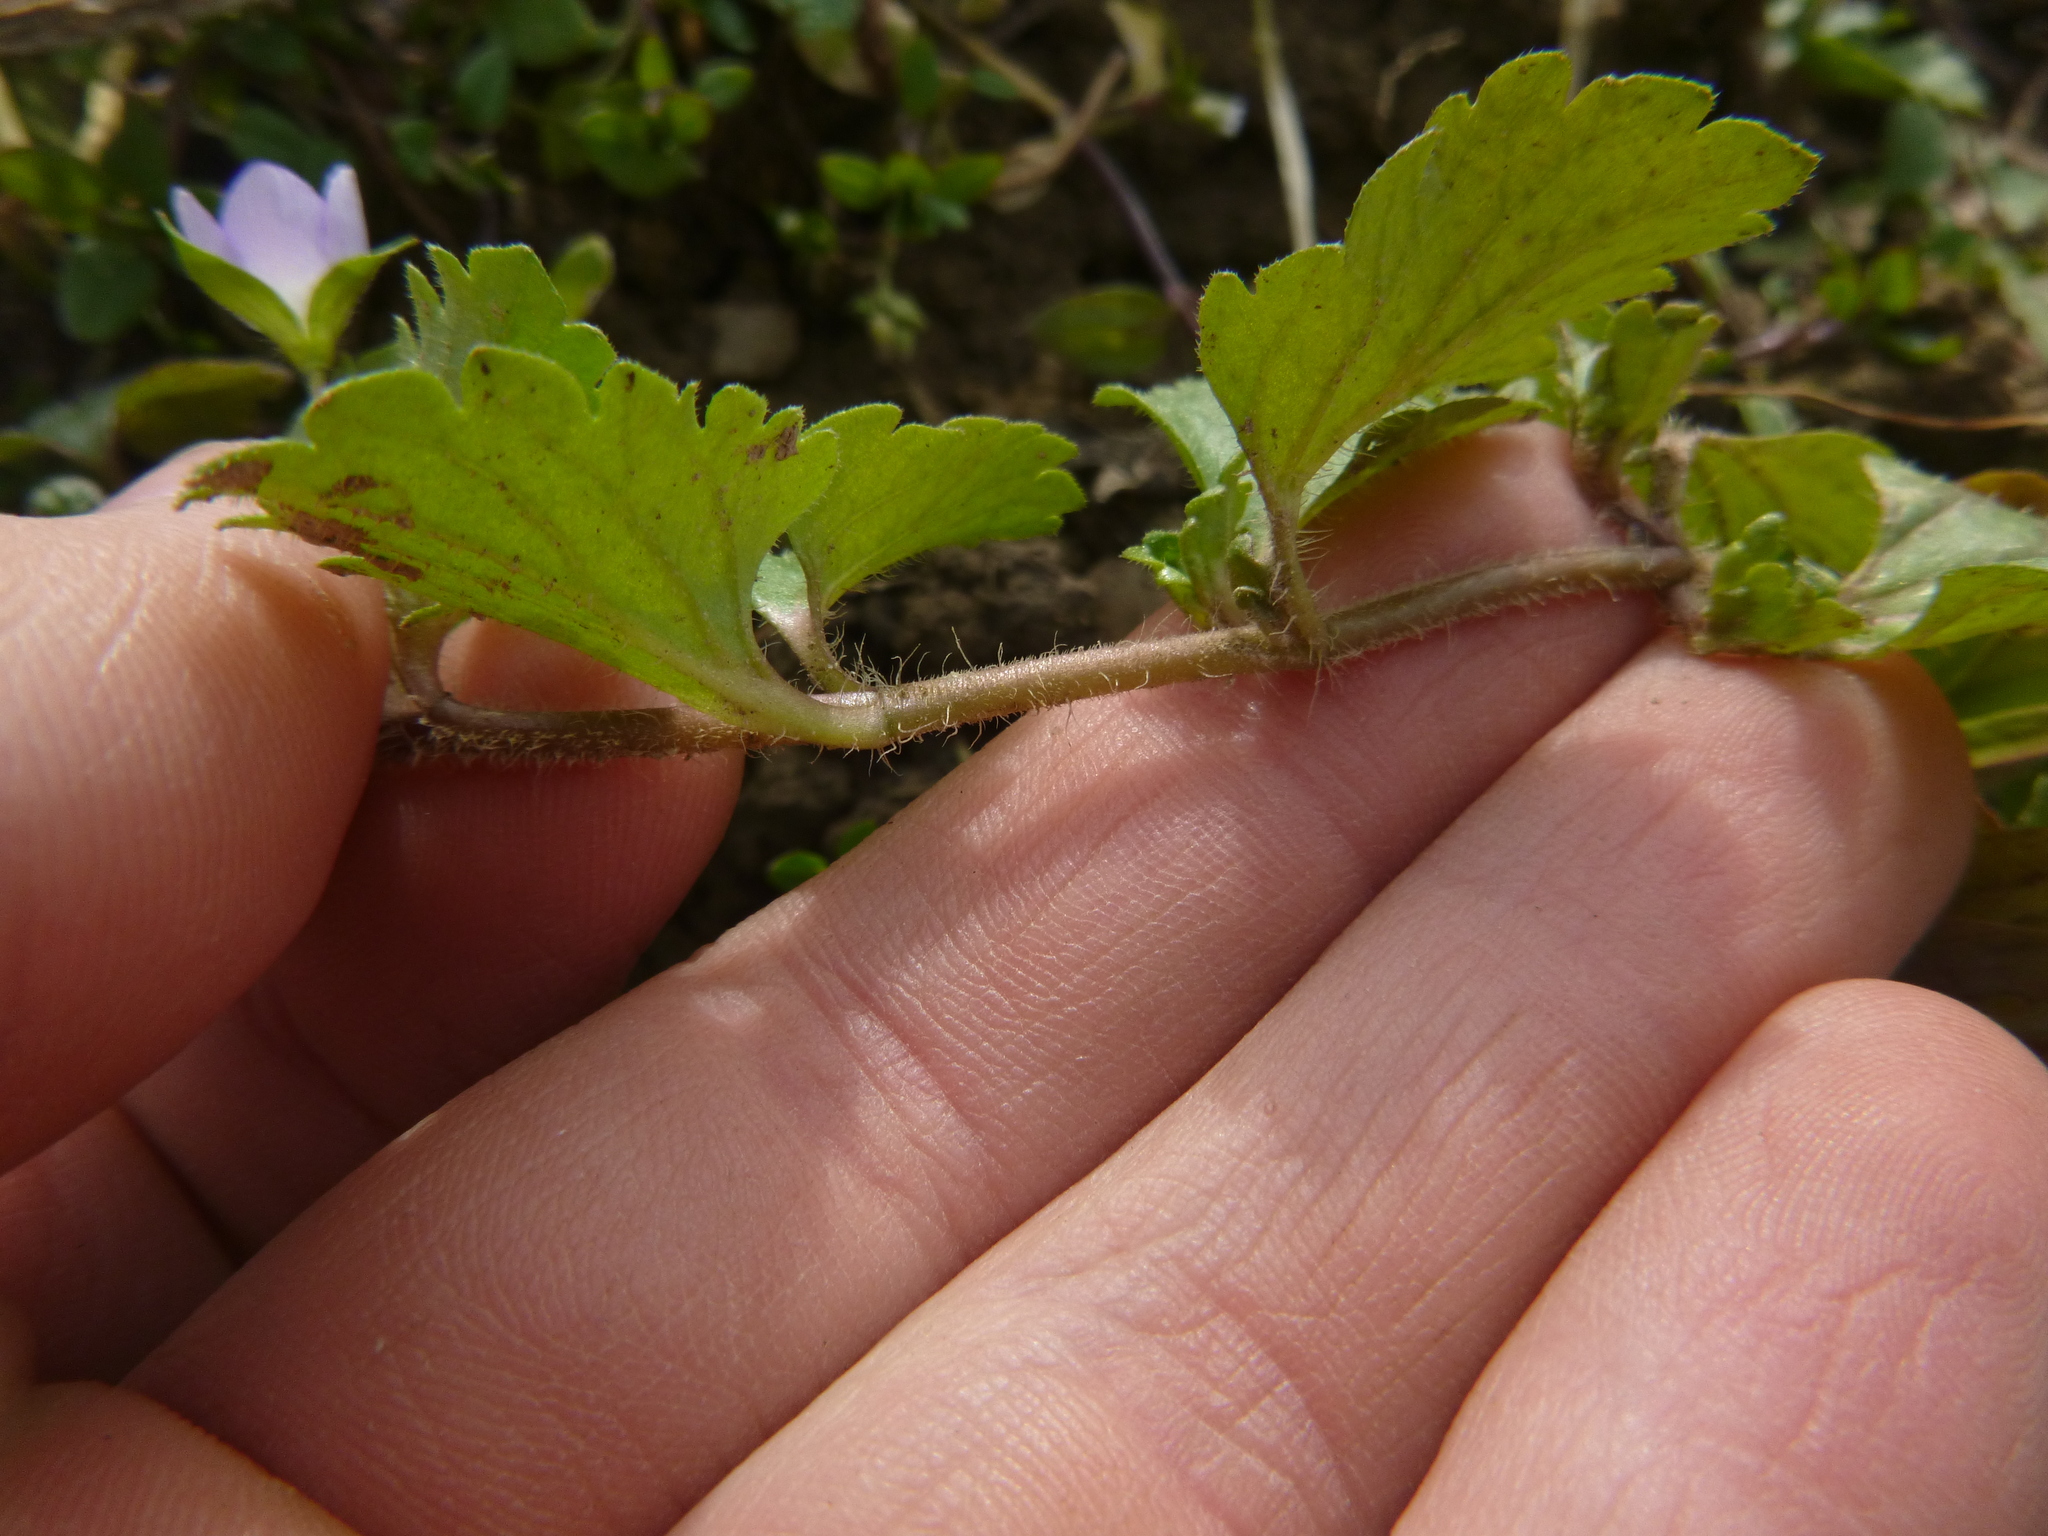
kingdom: Plantae
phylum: Tracheophyta
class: Magnoliopsida
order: Lamiales
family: Plantaginaceae
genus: Veronica
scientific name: Veronica persica
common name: Common field-speedwell
